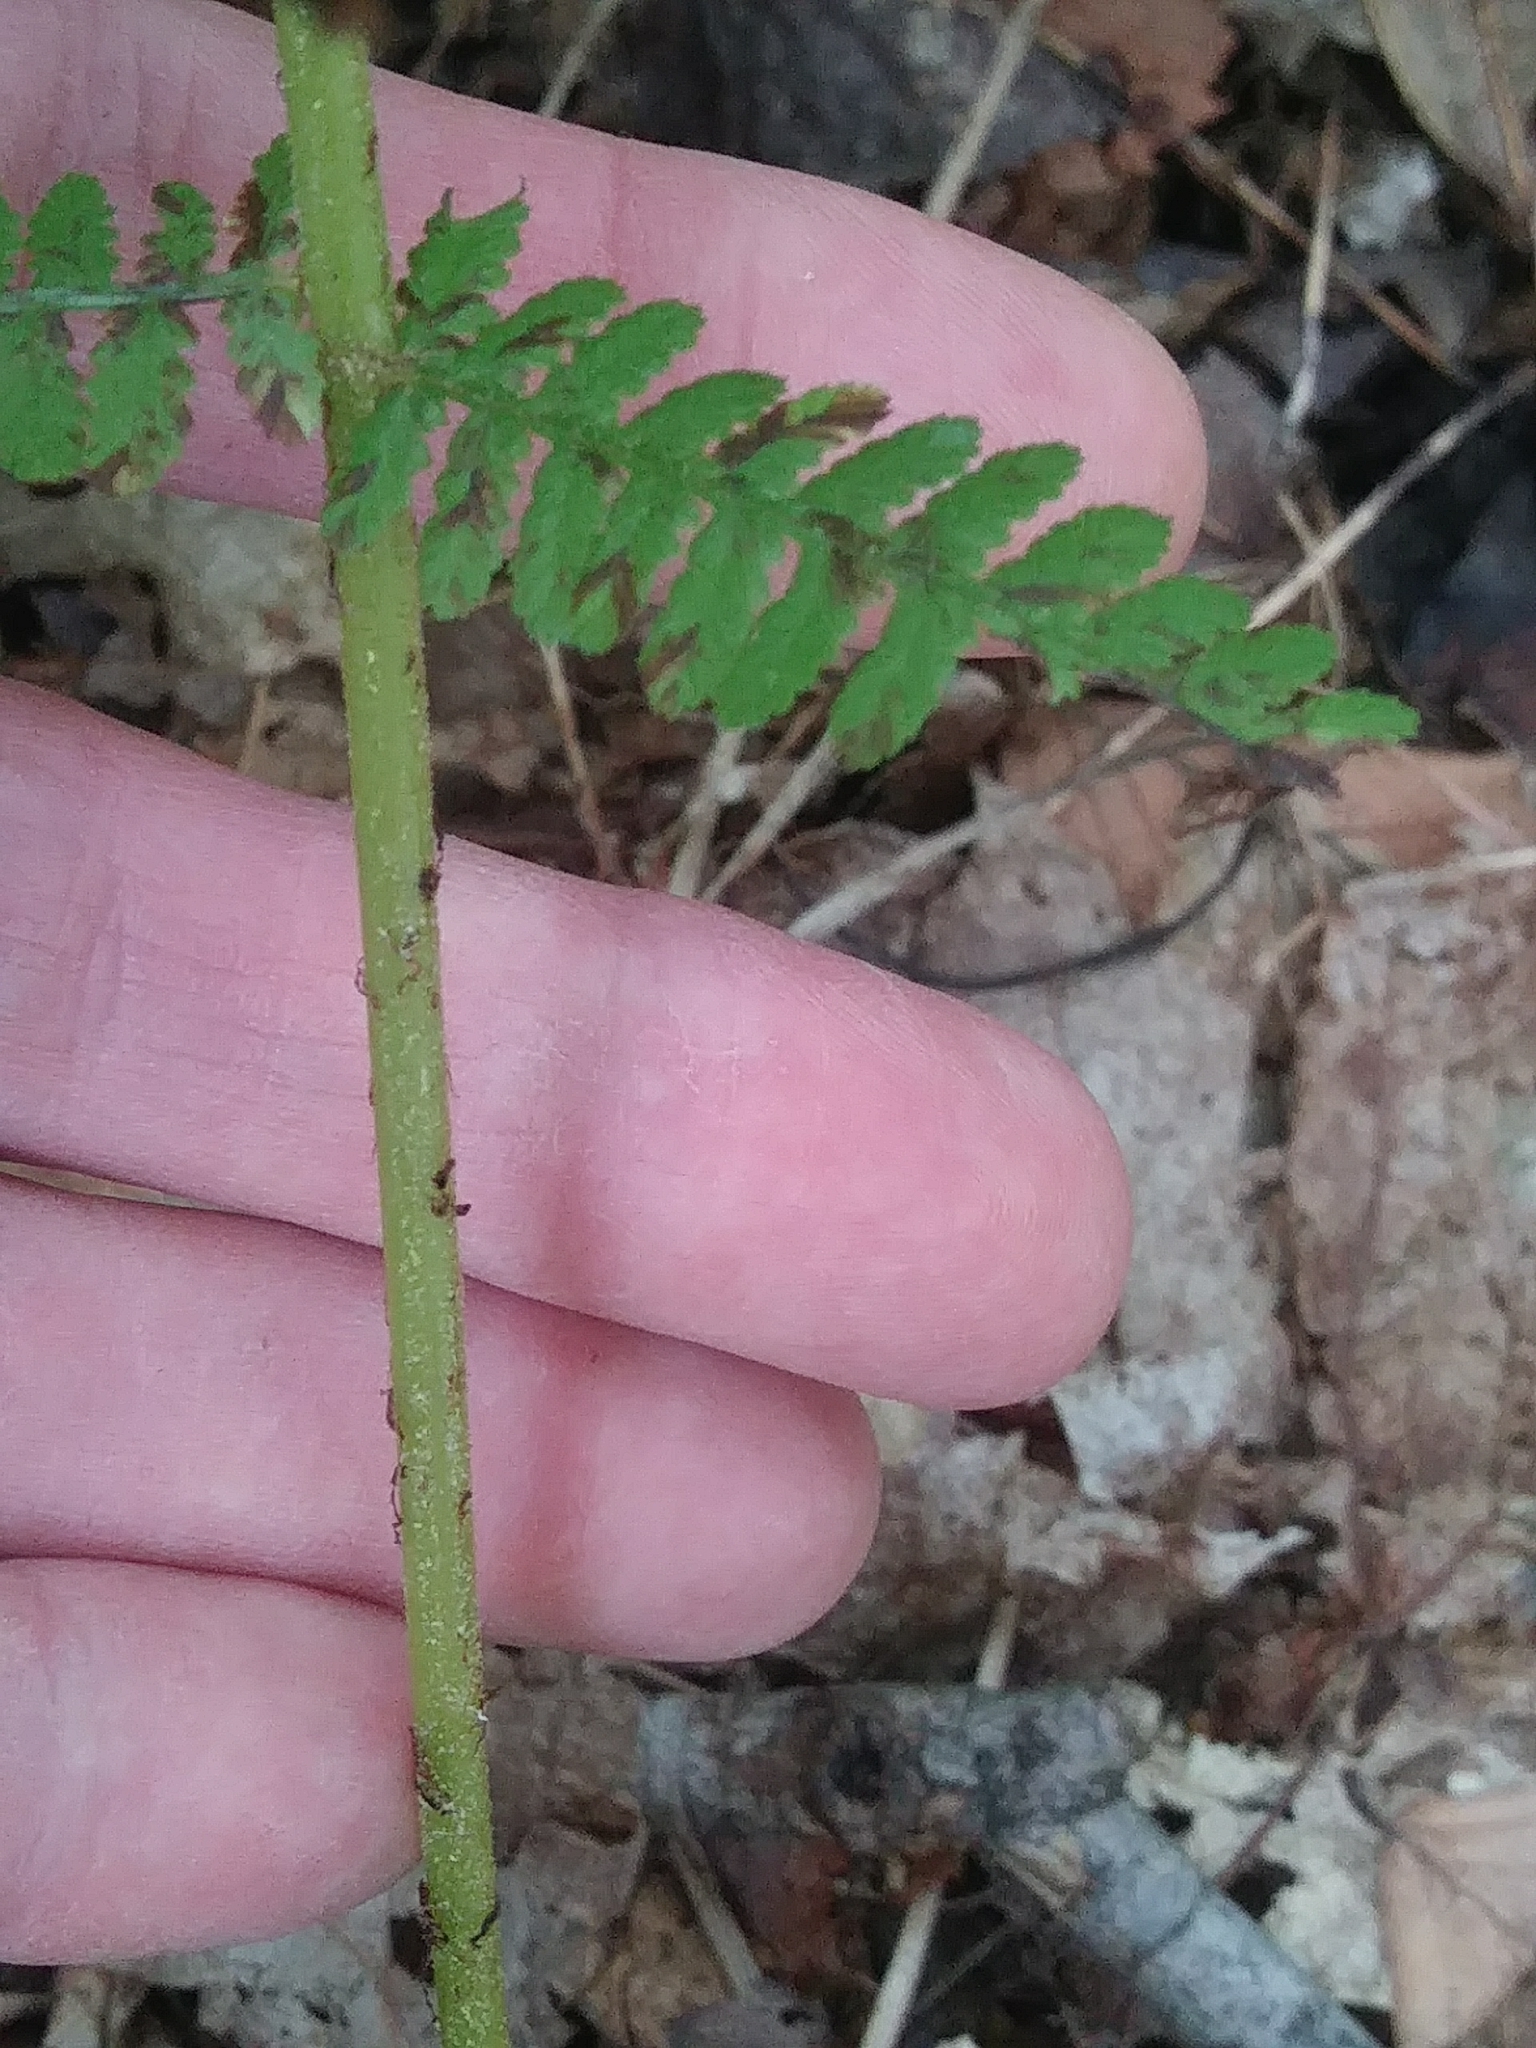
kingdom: Plantae
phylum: Tracheophyta
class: Polypodiopsida
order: Polypodiales
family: Athyriaceae
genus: Athyrium
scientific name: Athyrium angustum
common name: Northern lady fern
